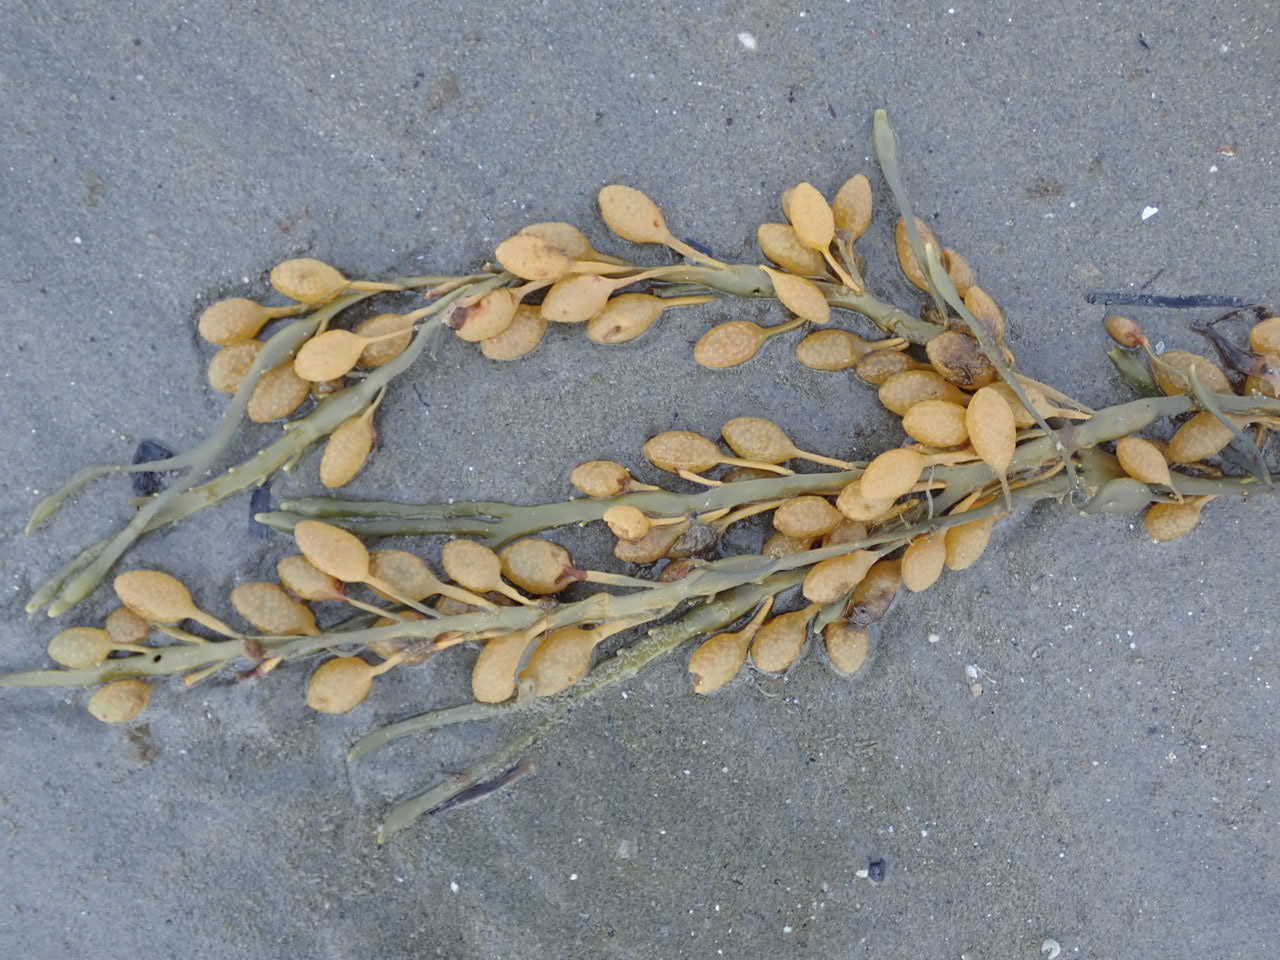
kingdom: Chromista
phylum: Ochrophyta
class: Phaeophyceae
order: Fucales
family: Fucaceae
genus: Ascophyllum
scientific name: Ascophyllum nodosum
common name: Knotted wrack
